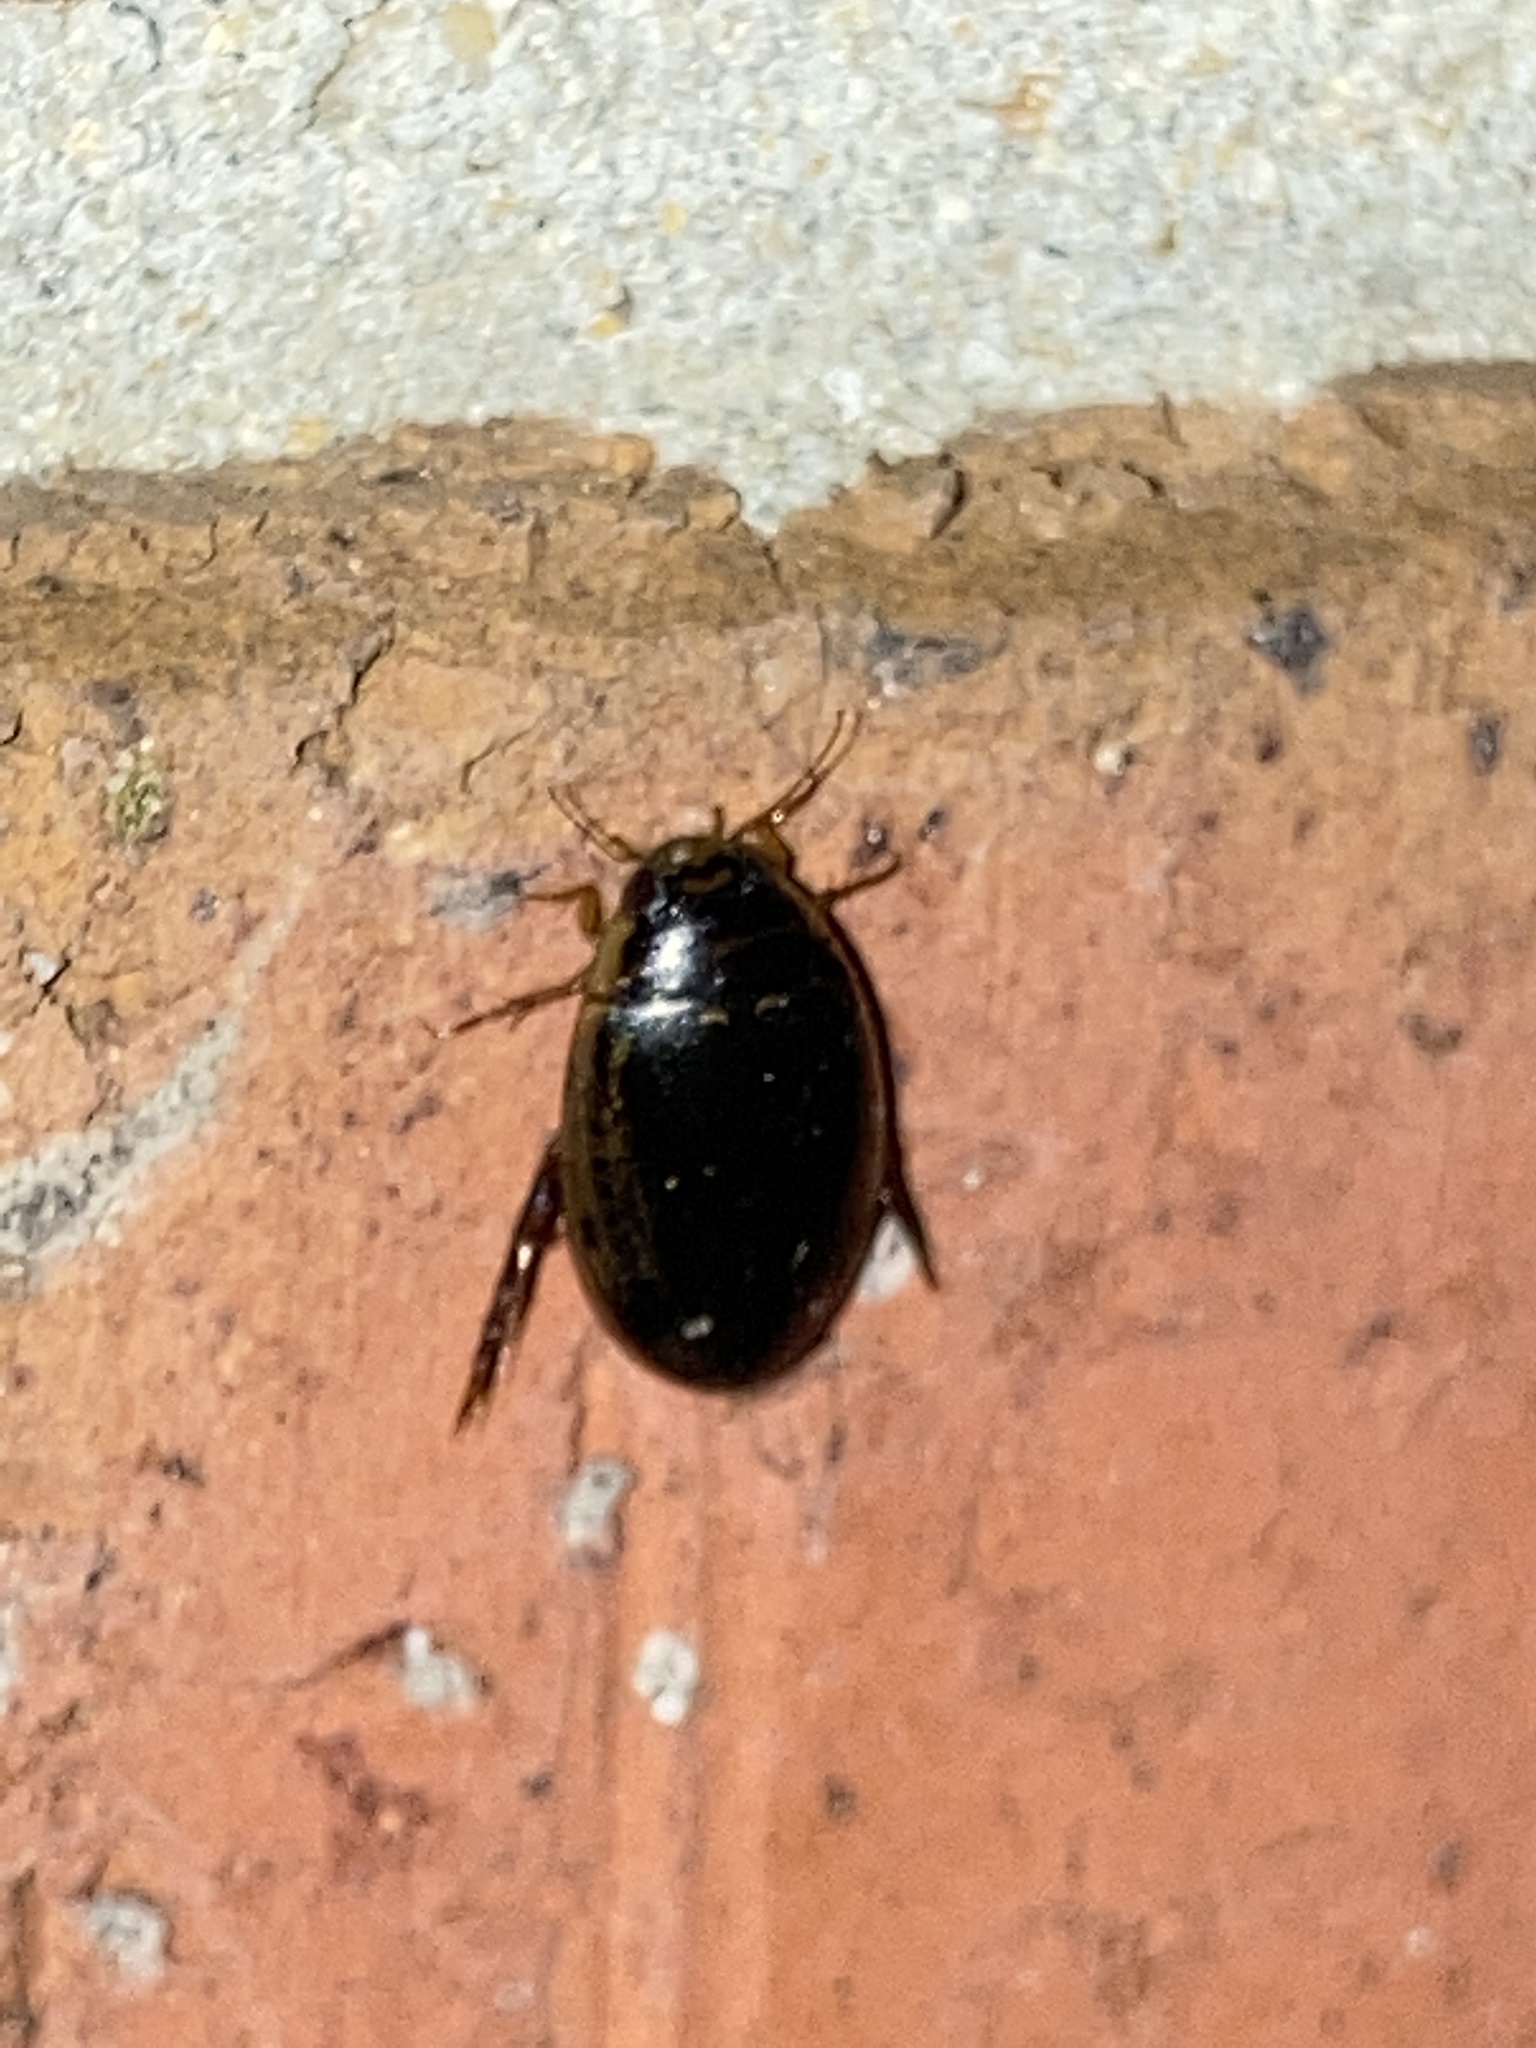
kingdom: Animalia
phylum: Arthropoda
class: Insecta
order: Coleoptera
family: Dytiscidae
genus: Thermonectus
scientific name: Thermonectus basillaris
